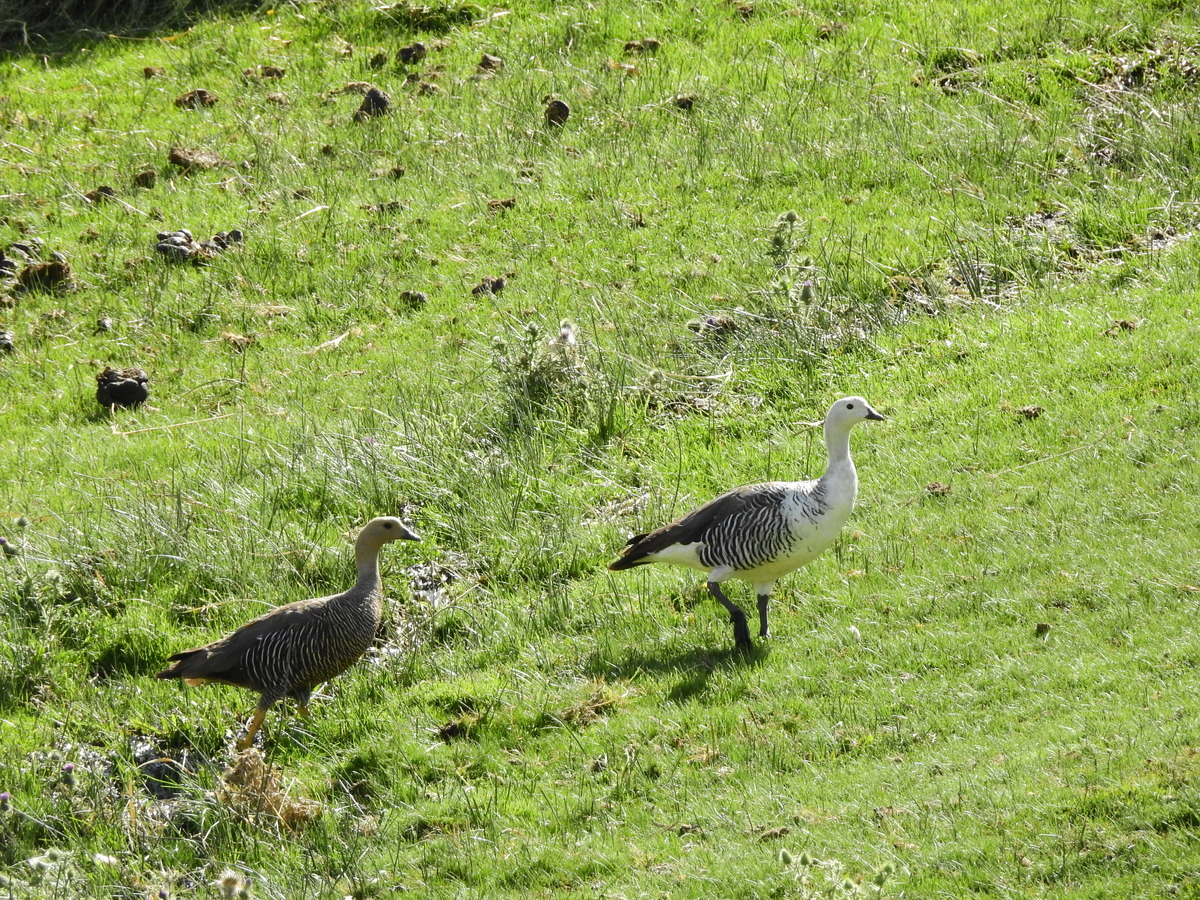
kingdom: Animalia
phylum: Chordata
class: Aves
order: Anseriformes
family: Anatidae
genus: Chloephaga
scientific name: Chloephaga picta
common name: Upland goose
